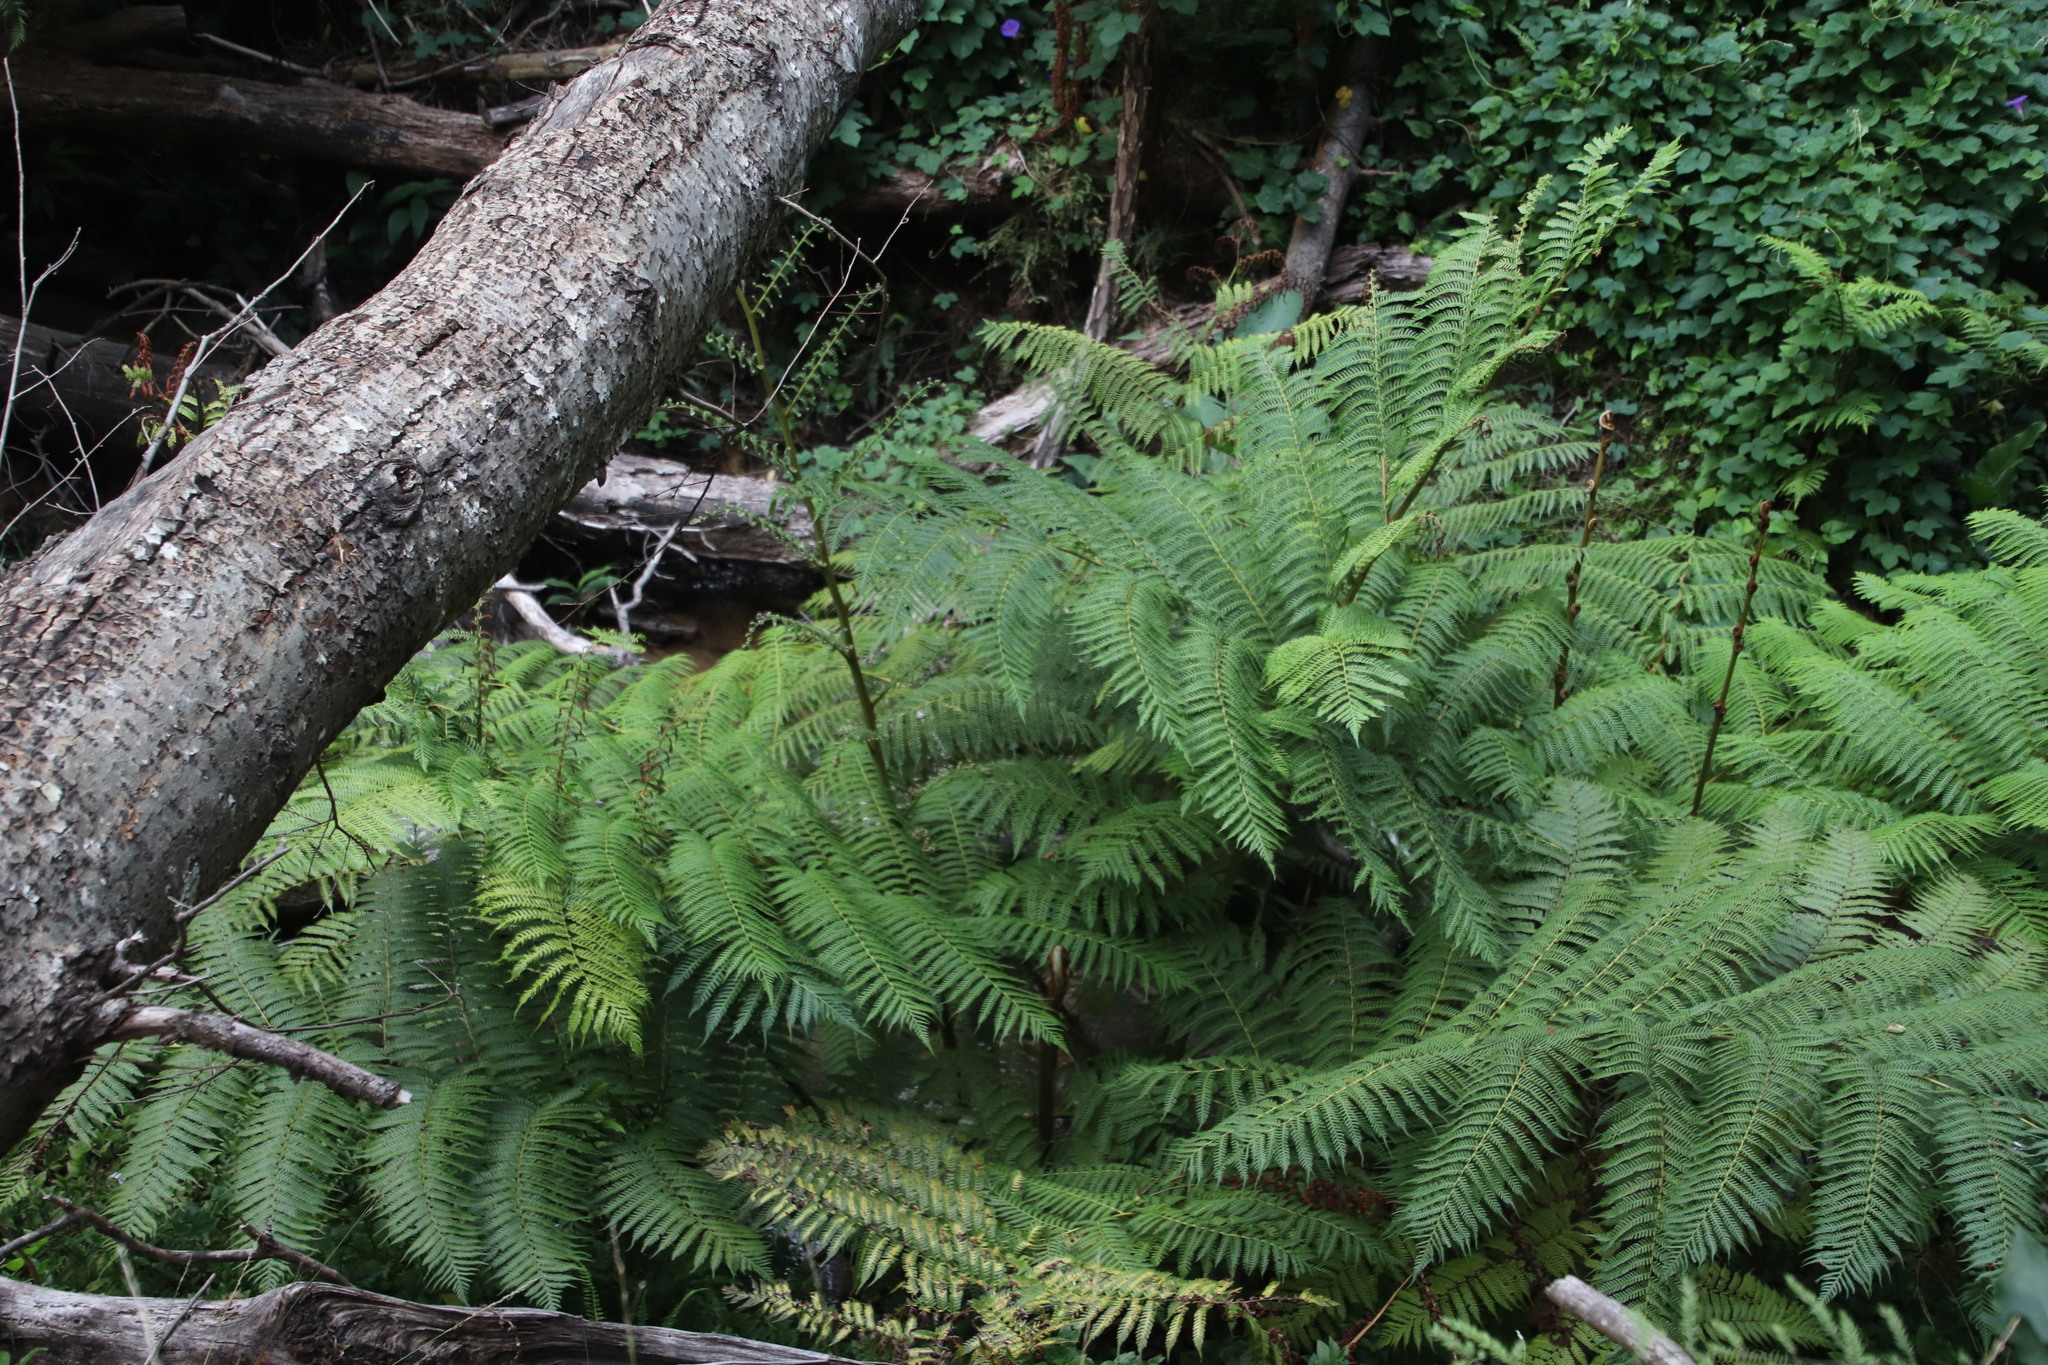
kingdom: Plantae
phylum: Tracheophyta
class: Polypodiopsida
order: Cyatheales
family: Cyatheaceae
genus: Sphaeropteris
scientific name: Sphaeropteris cooperi
